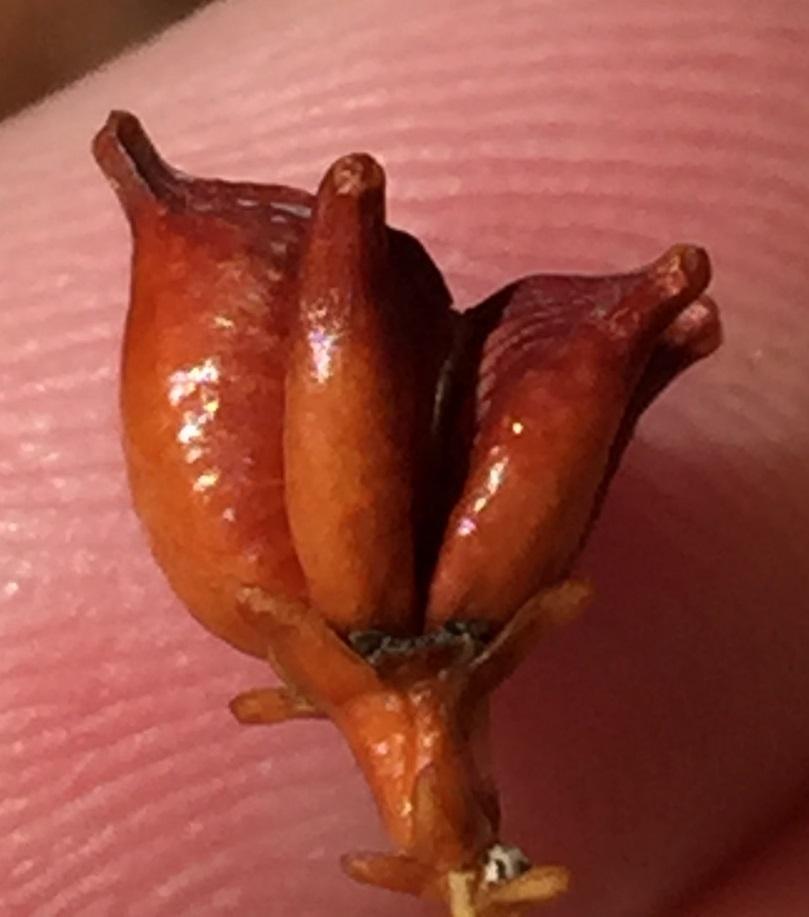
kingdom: Plantae
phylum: Tracheophyta
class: Magnoliopsida
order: Sapindales
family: Rutaceae
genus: Diosma
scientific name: Diosma recurva
